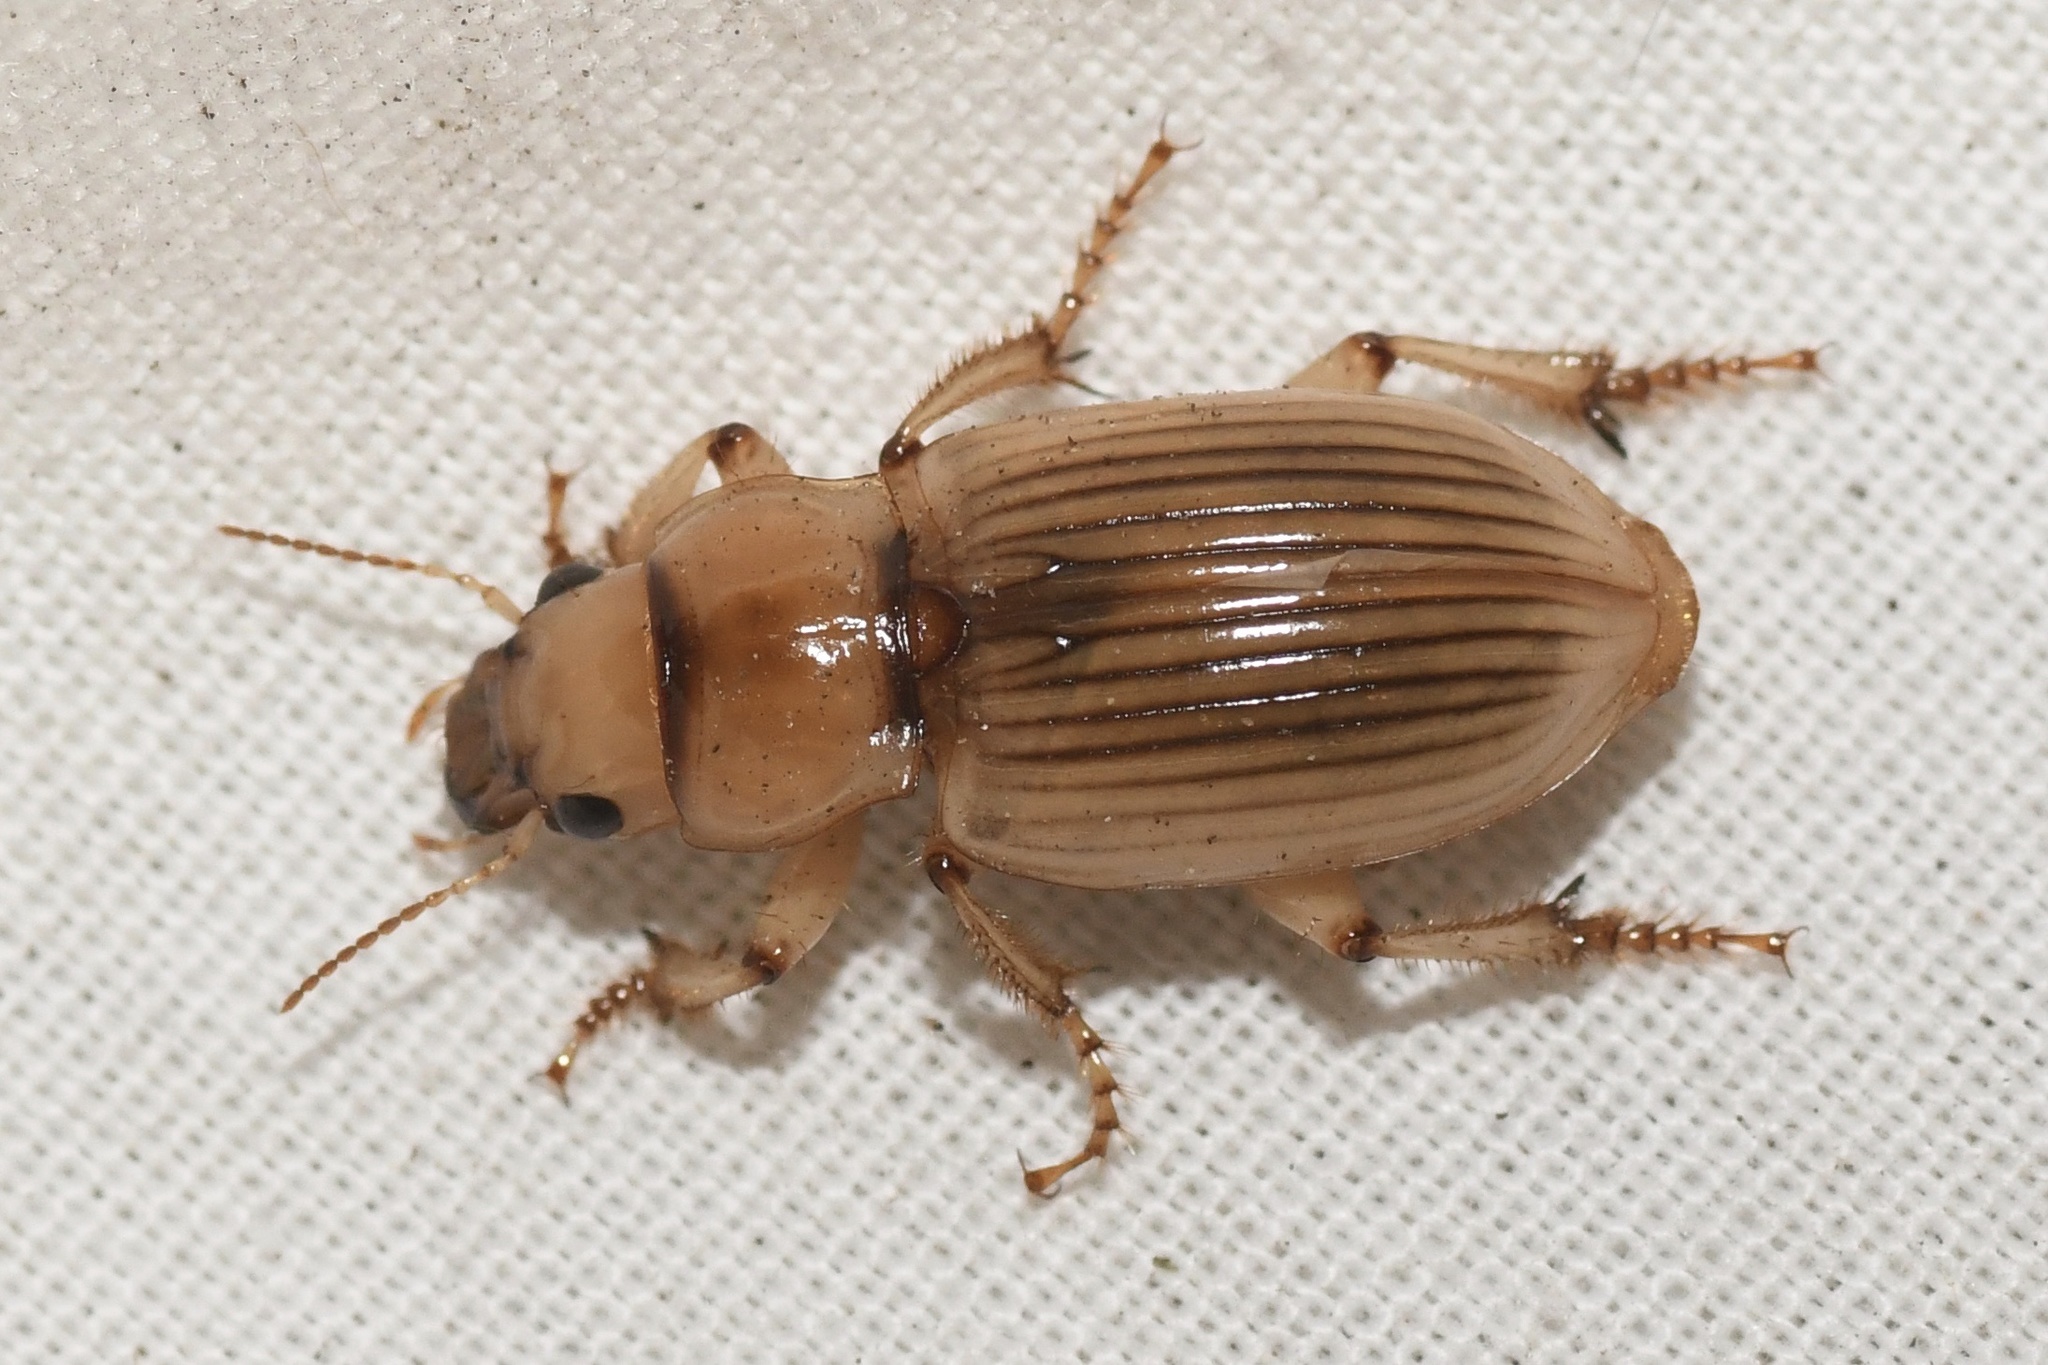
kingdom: Animalia
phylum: Arthropoda
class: Insecta
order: Coleoptera
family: Carabidae
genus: Geopinus
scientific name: Geopinus incrassatus
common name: Homely geopinus
